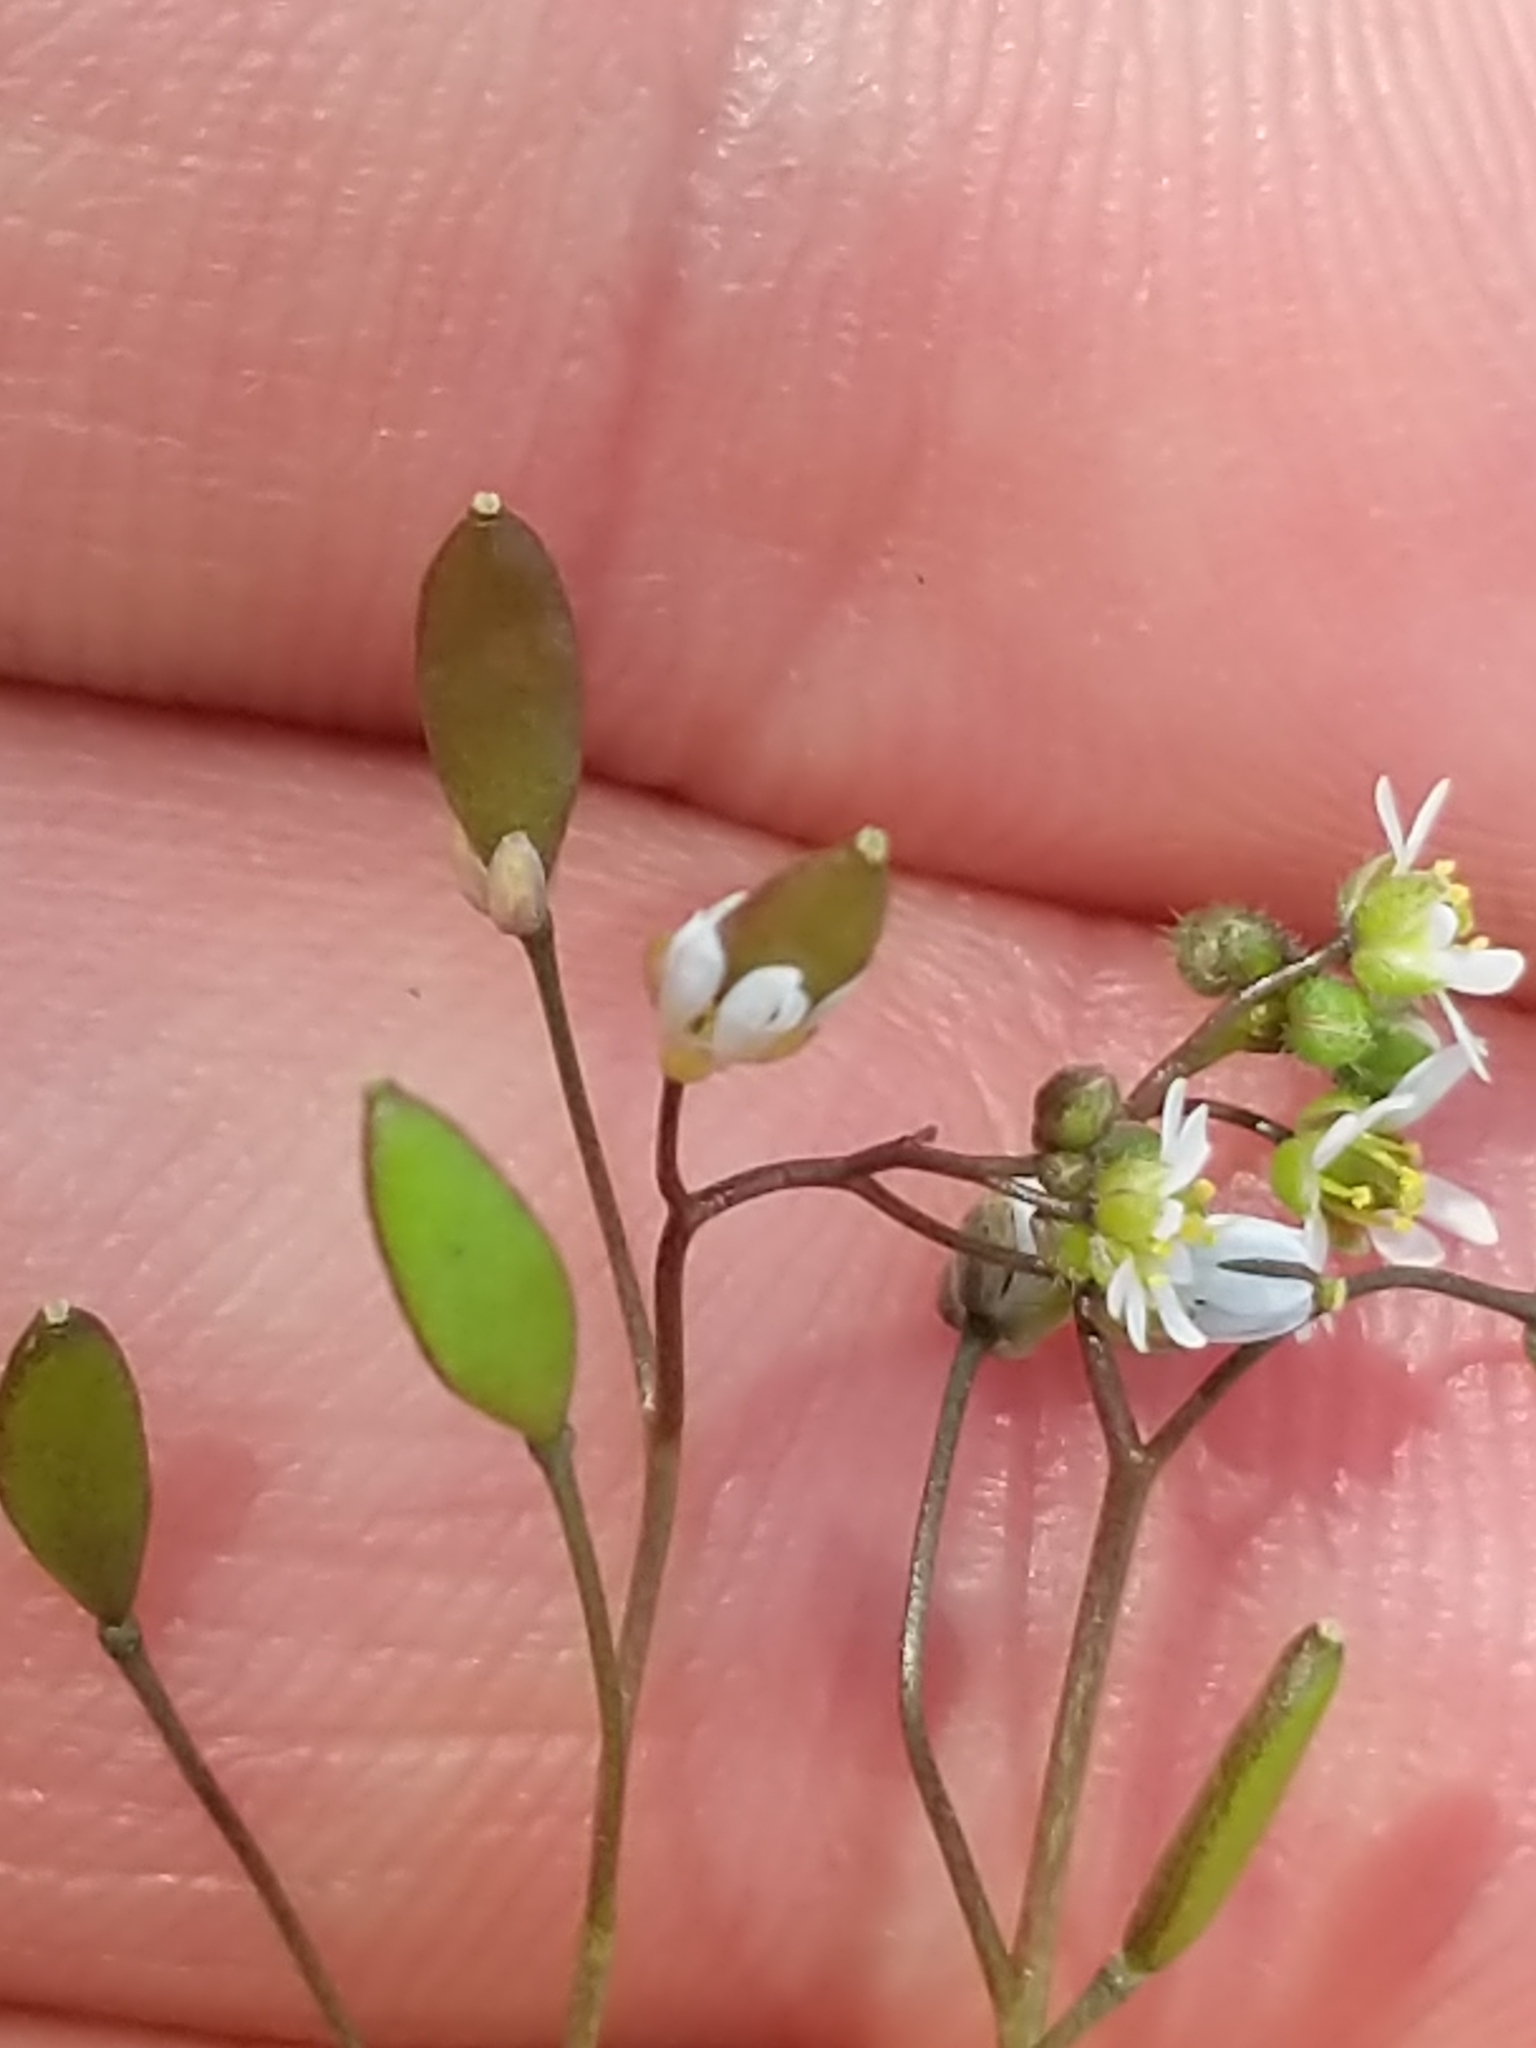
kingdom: Plantae
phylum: Tracheophyta
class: Magnoliopsida
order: Brassicales
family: Brassicaceae
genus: Draba
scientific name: Draba verna
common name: Spring draba
